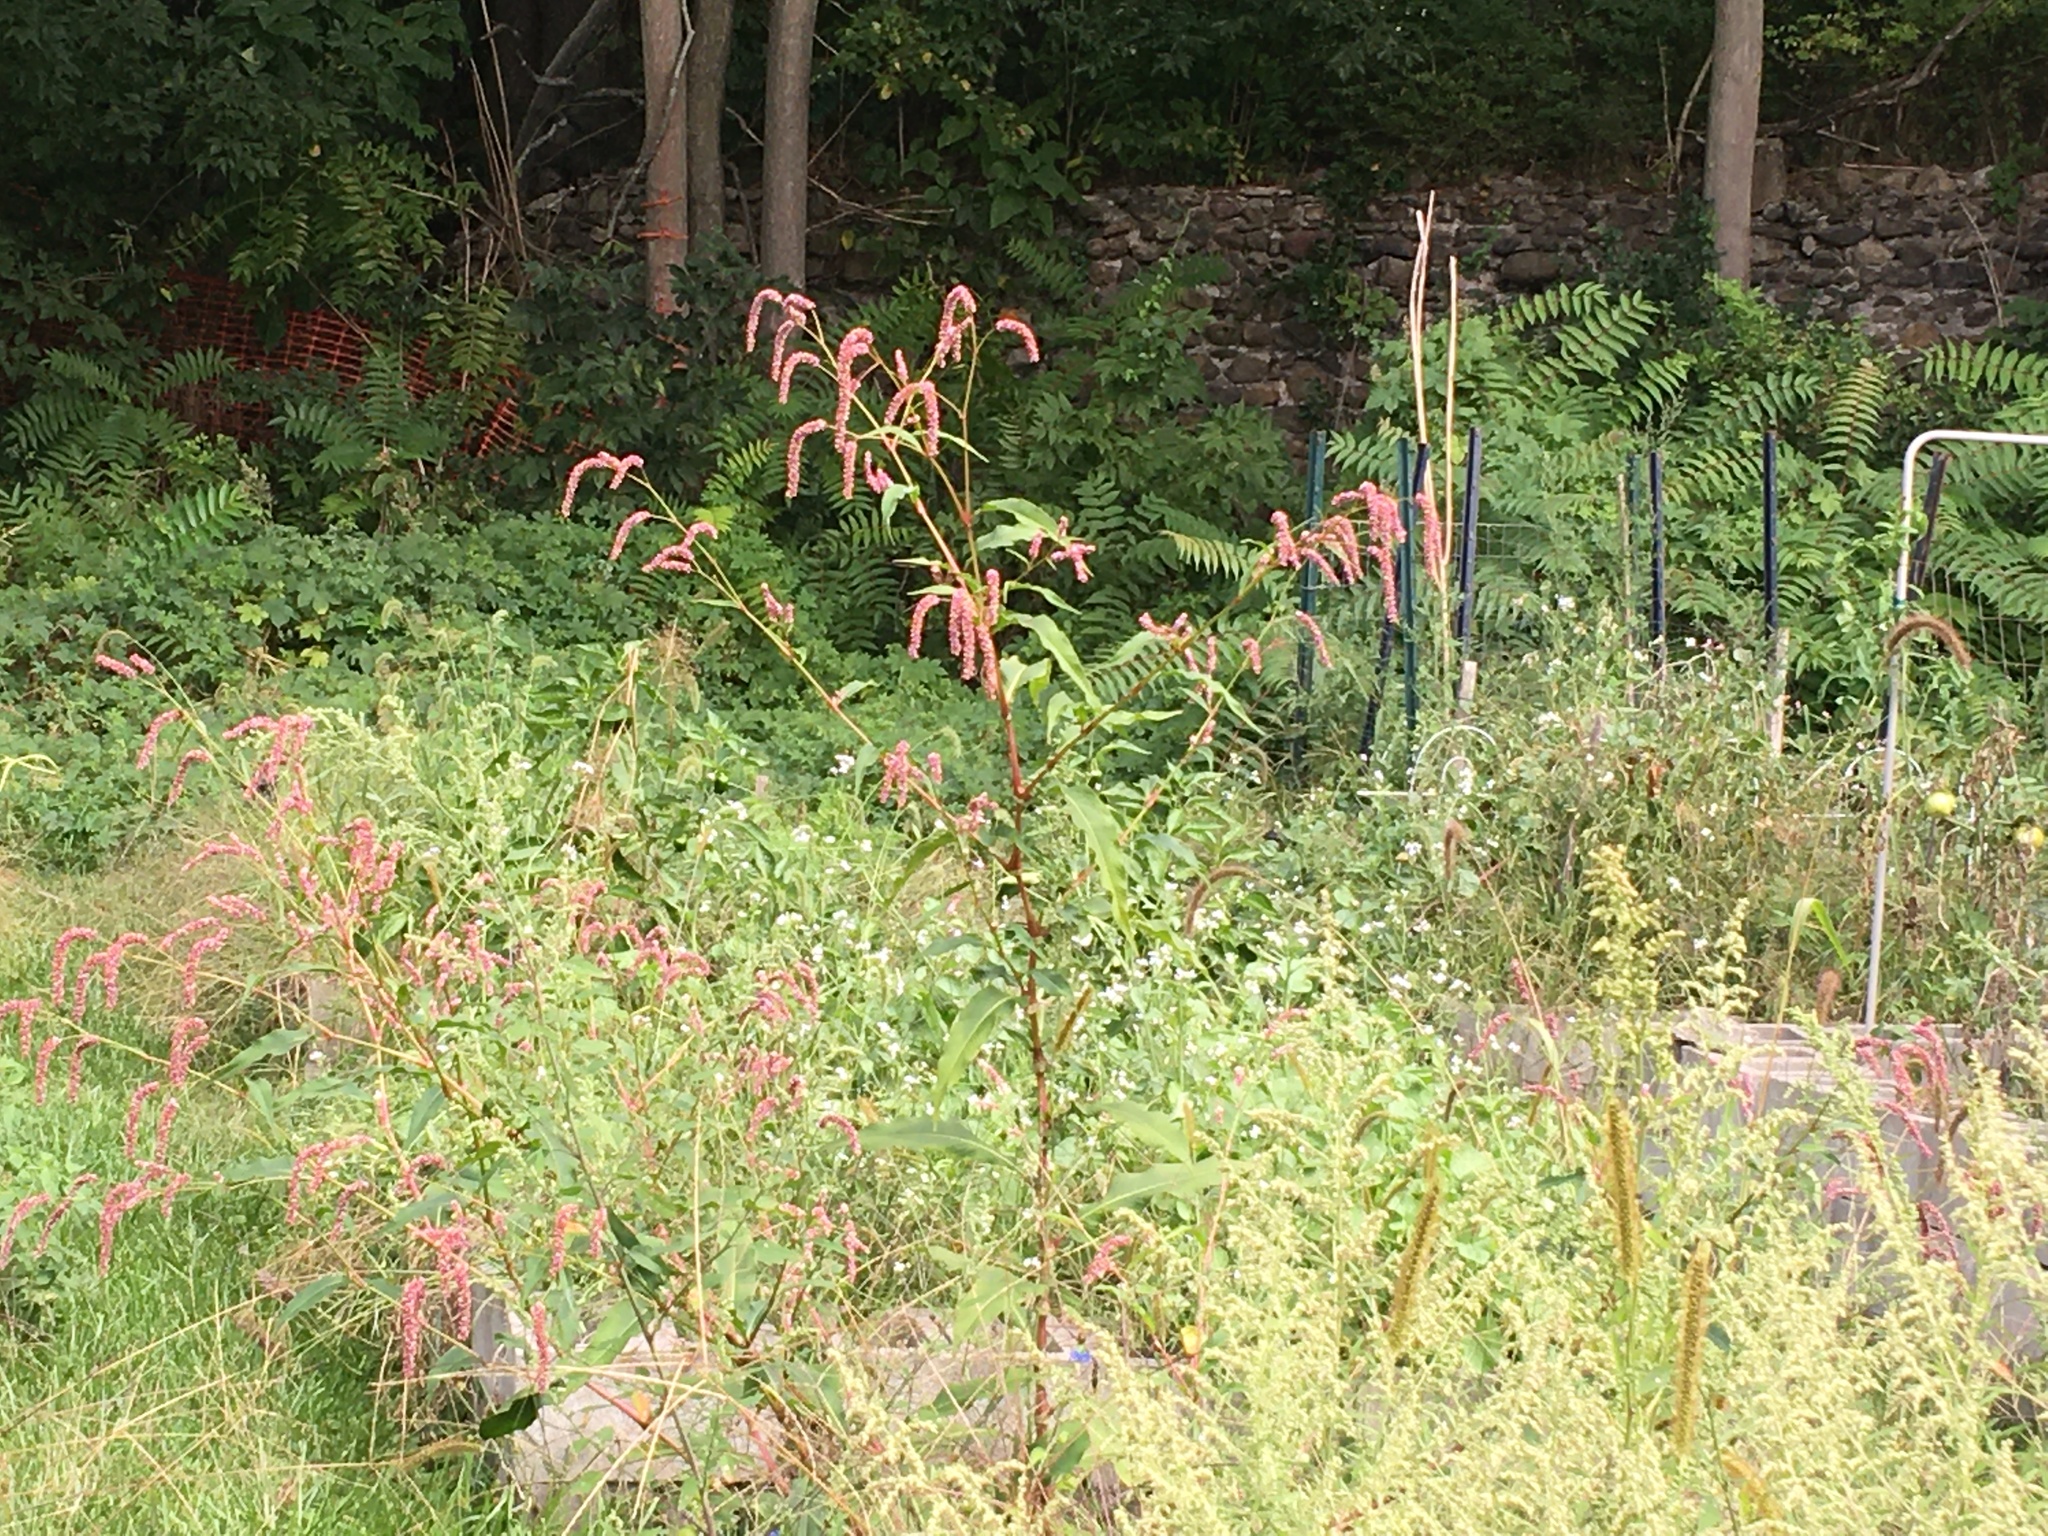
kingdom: Plantae
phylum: Tracheophyta
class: Magnoliopsida
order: Caryophyllales
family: Polygonaceae
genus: Persicaria
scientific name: Persicaria extremiorientalis
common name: Far-eastern smartweed
